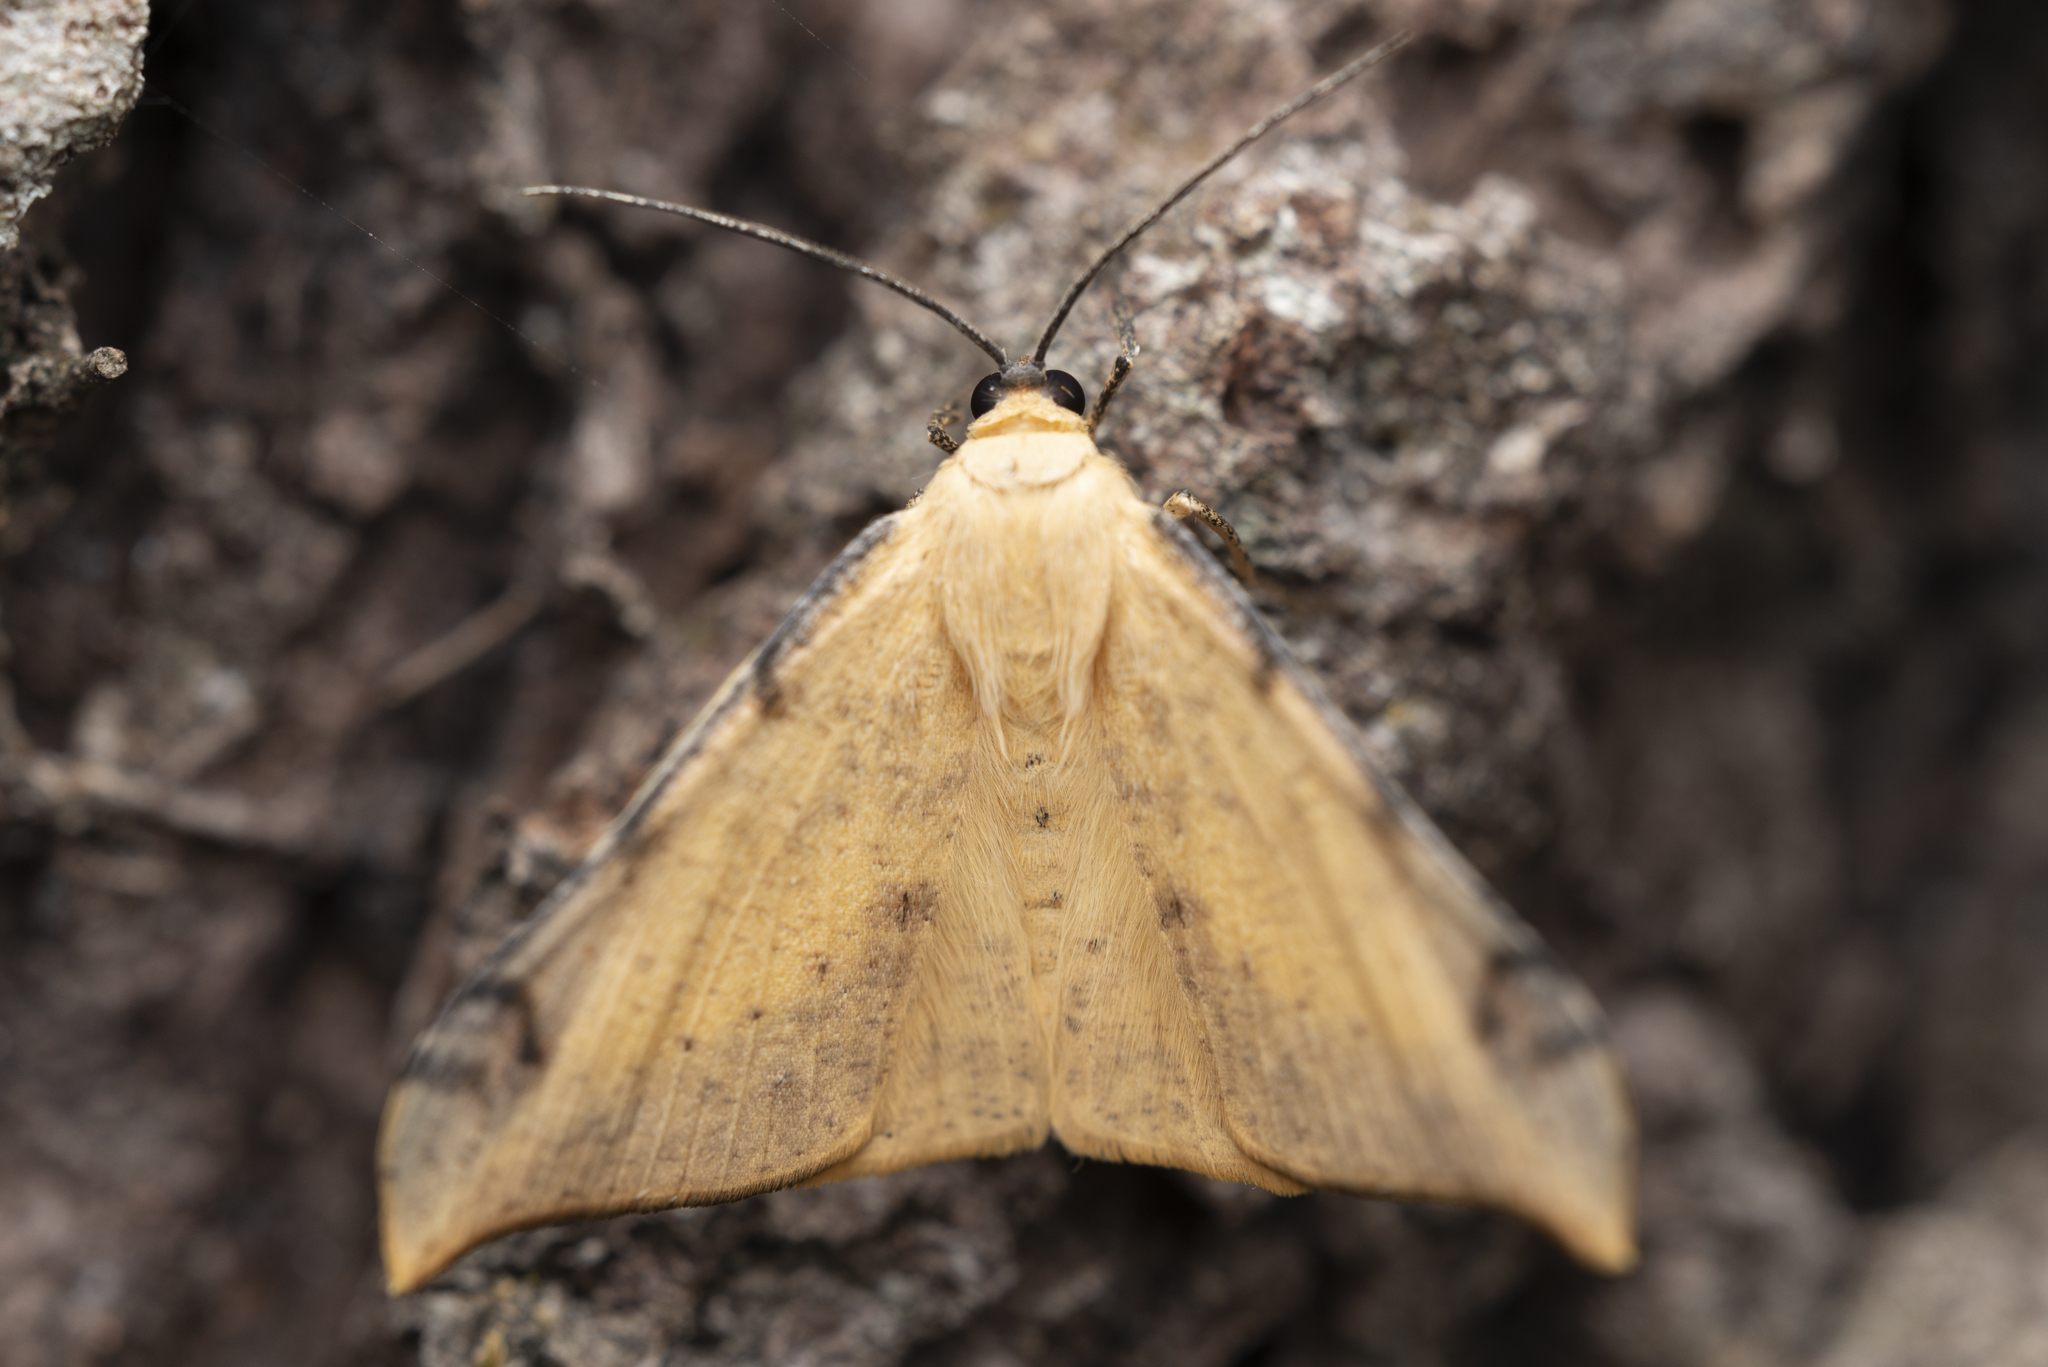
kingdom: Animalia
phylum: Arthropoda
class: Insecta
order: Lepidoptera
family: Geometridae
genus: Luxiaria
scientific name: Luxiaria phyllosaria
